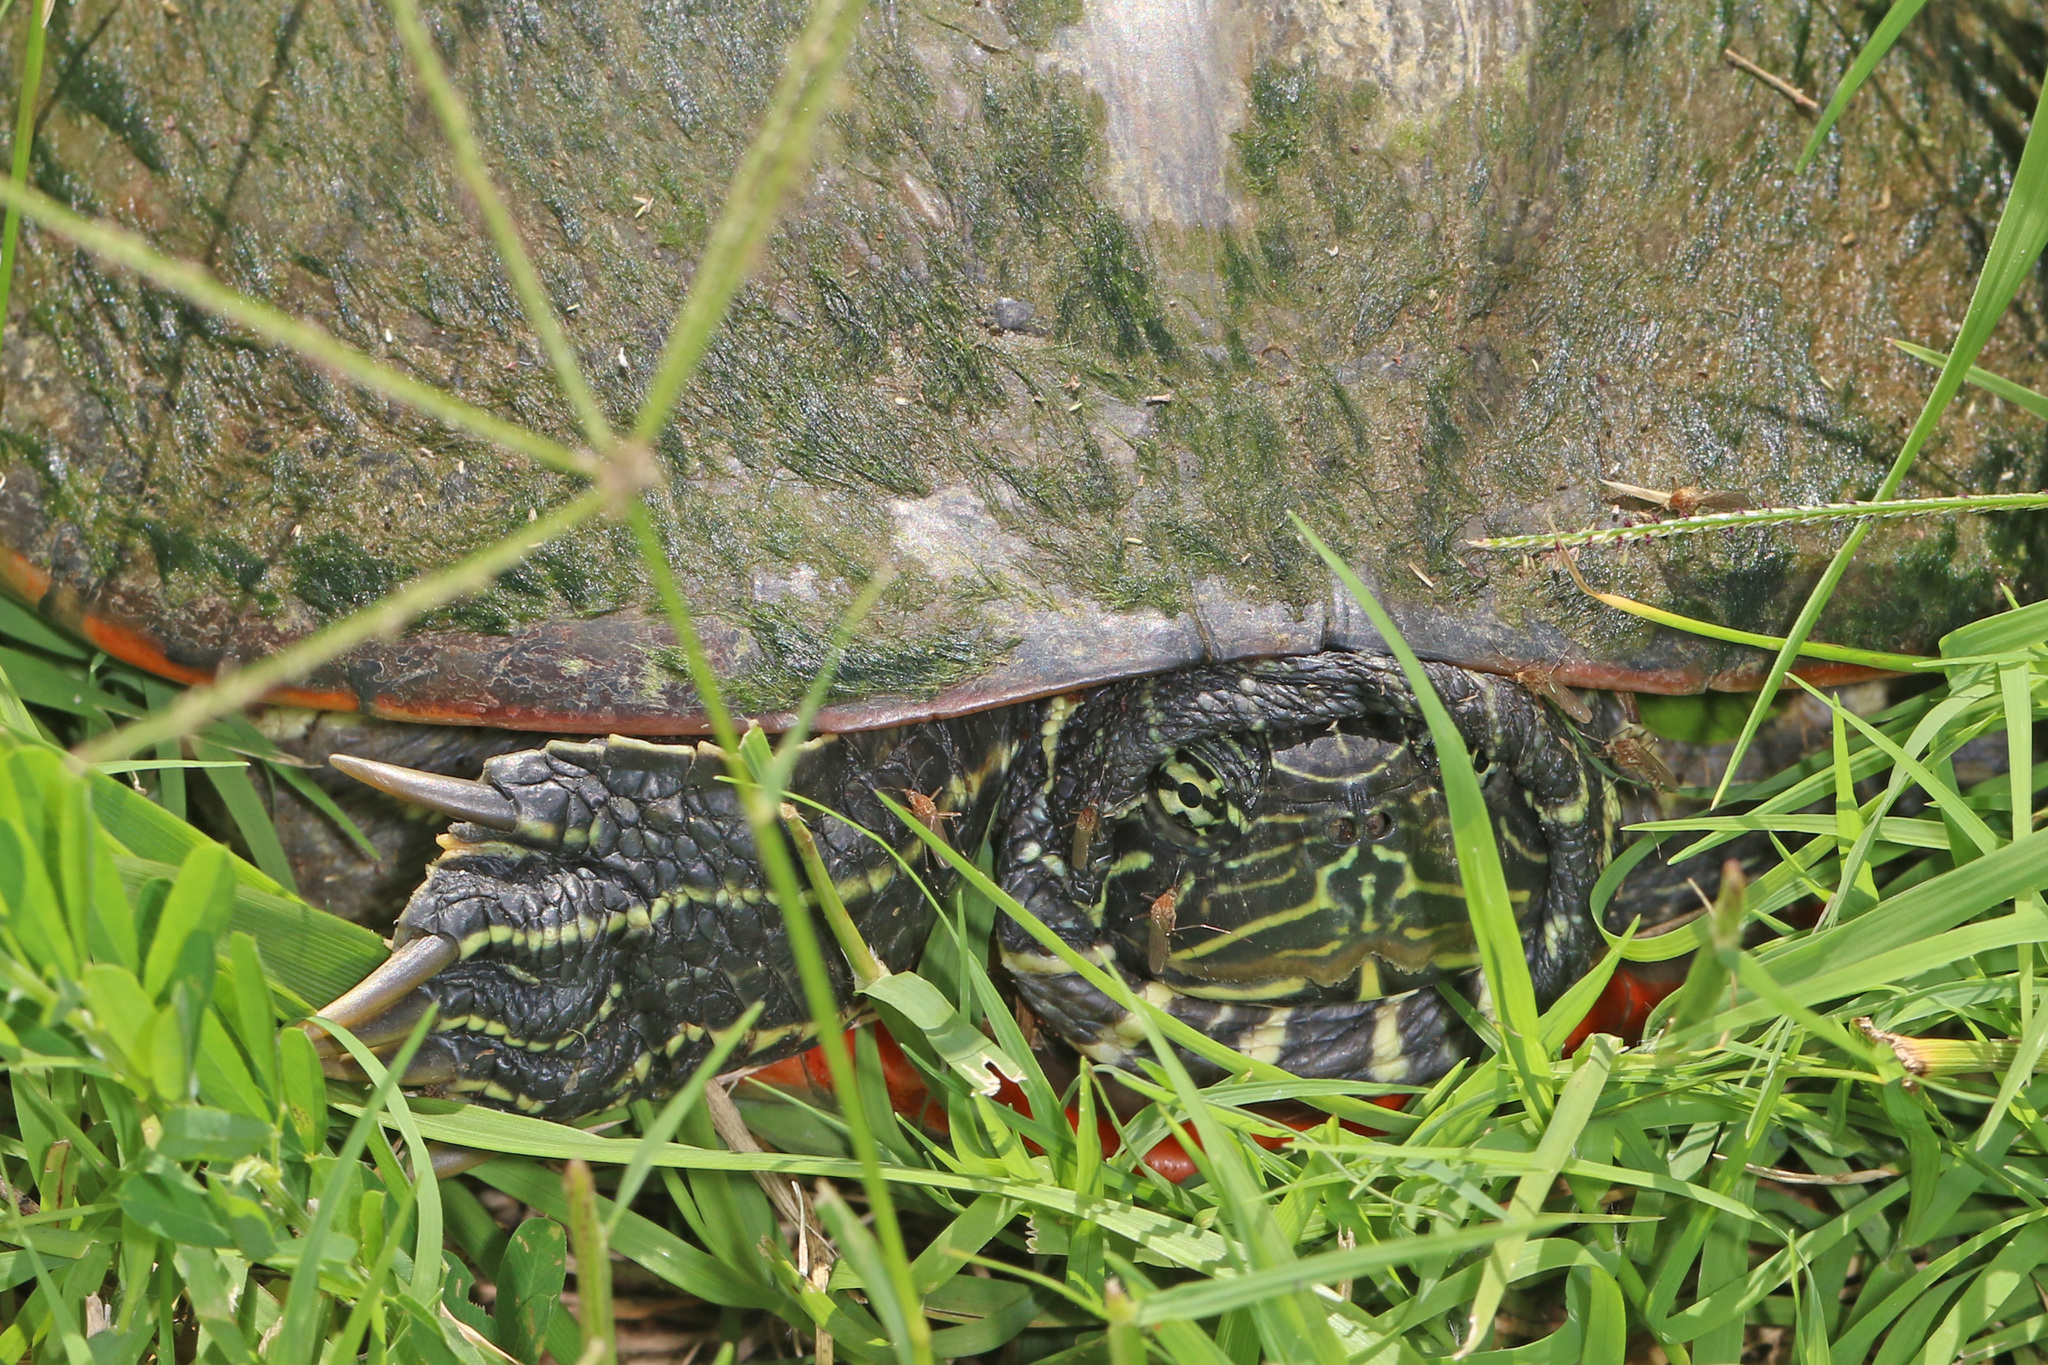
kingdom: Animalia
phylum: Chordata
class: Testudines
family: Emydidae
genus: Pseudemys
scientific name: Pseudemys rubriventris
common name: American red-bellied turtle
